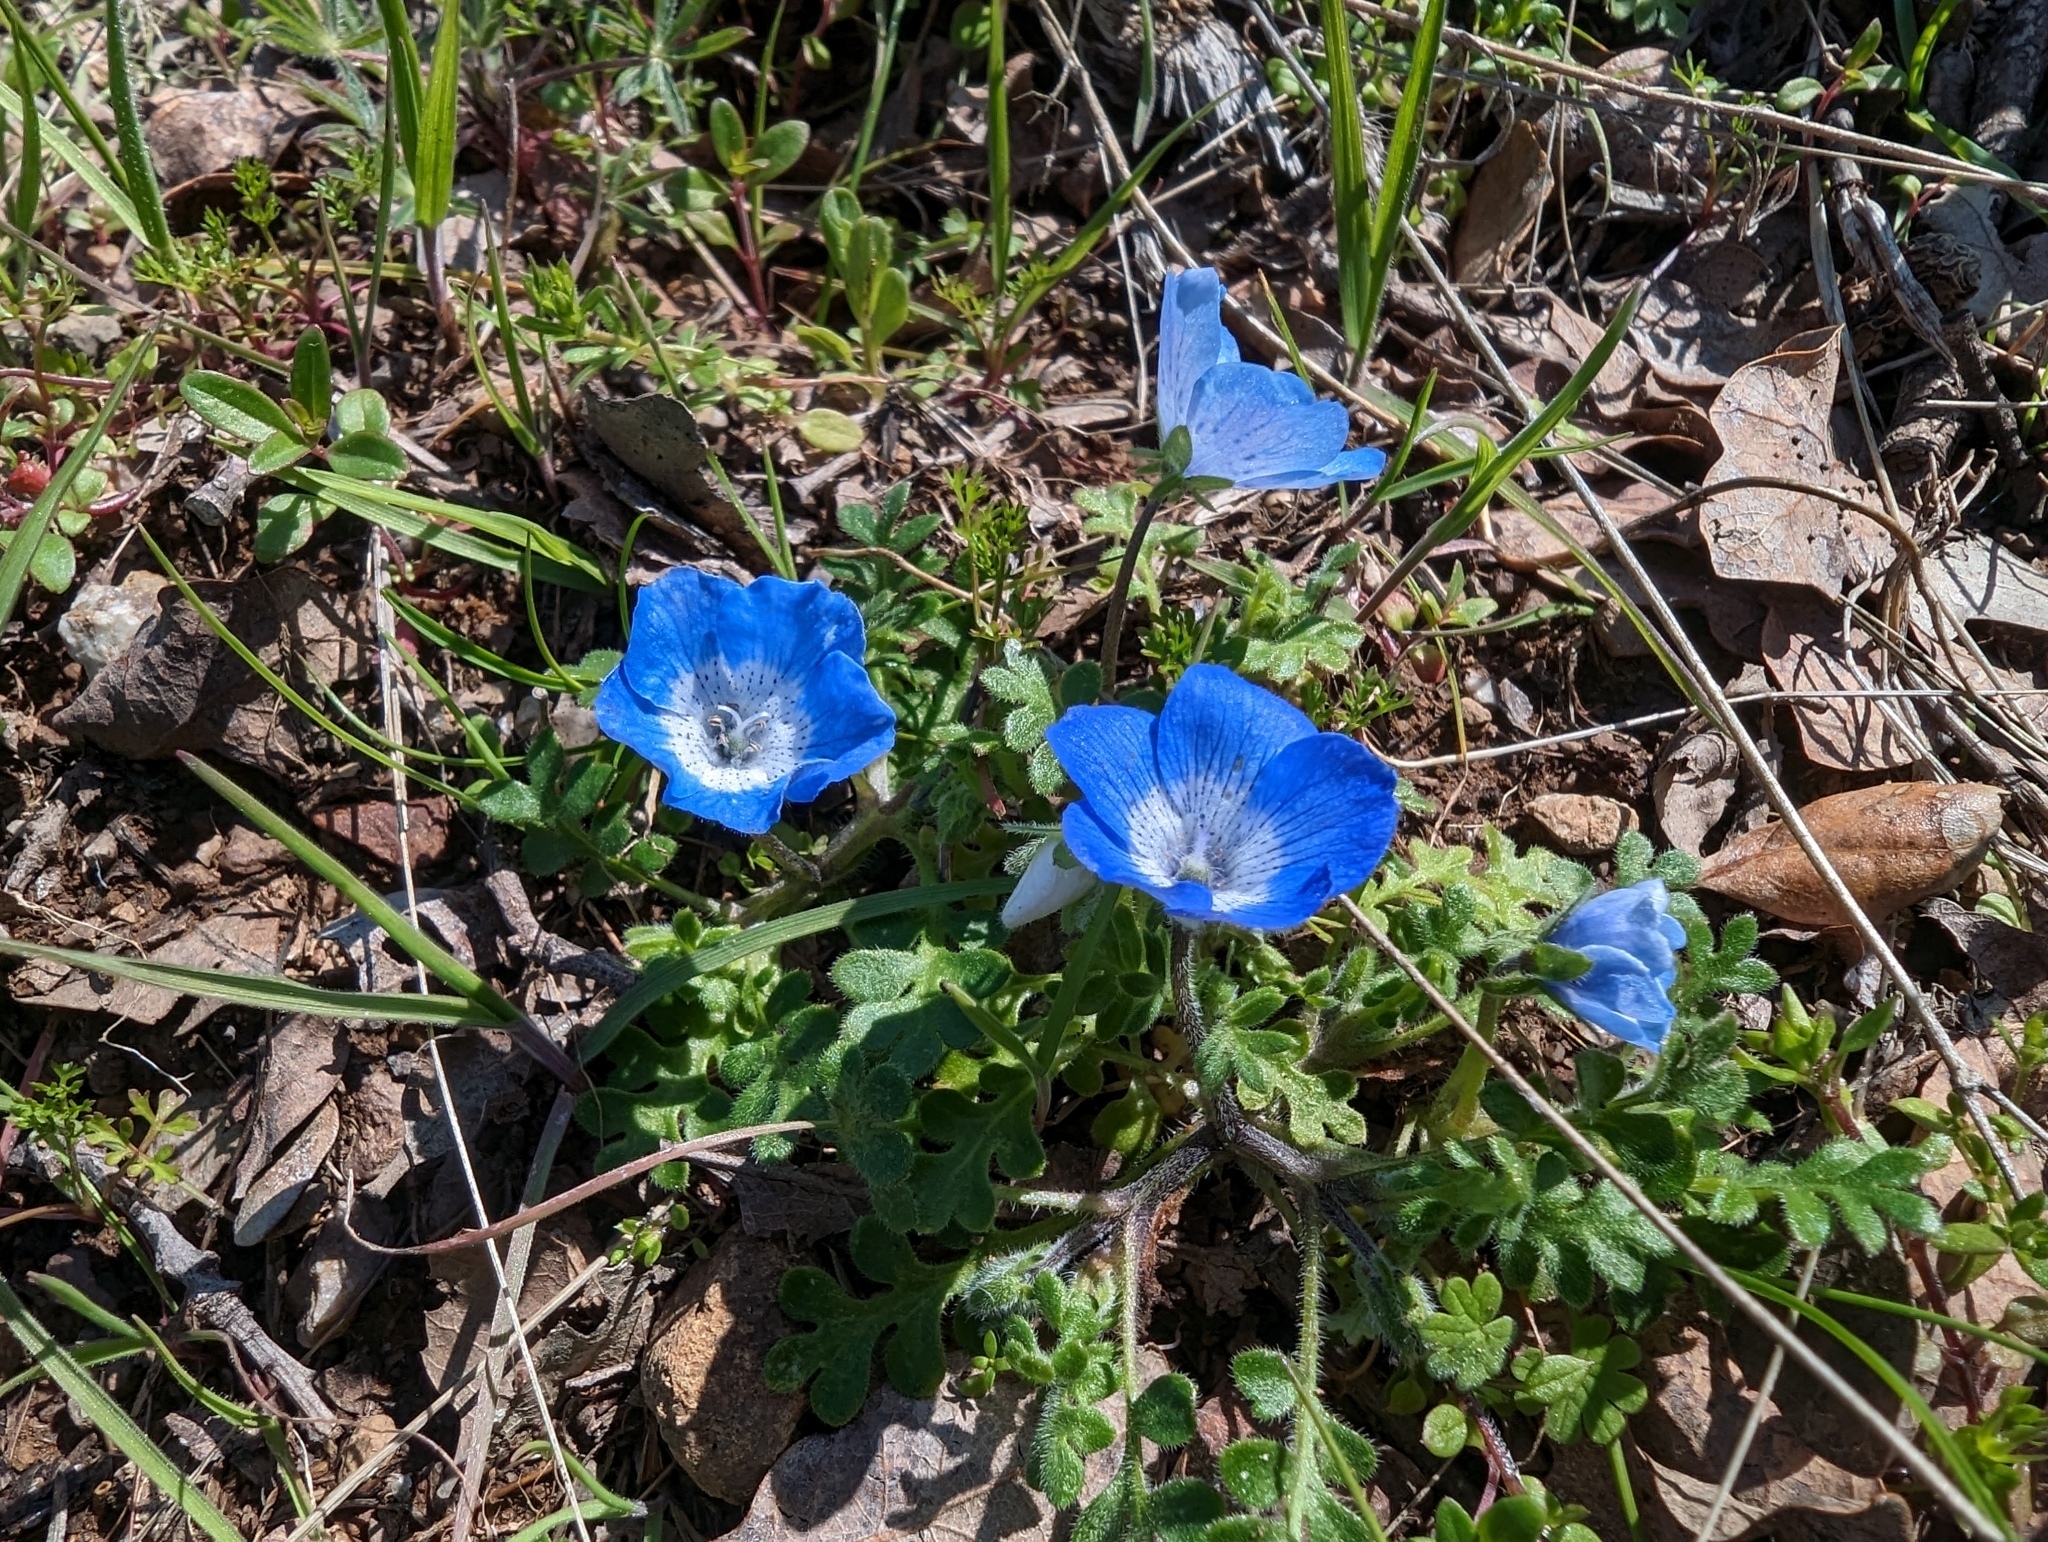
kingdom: Plantae
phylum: Tracheophyta
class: Magnoliopsida
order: Boraginales
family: Hydrophyllaceae
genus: Nemophila
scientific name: Nemophila menziesii
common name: Baby's-blue-eyes
